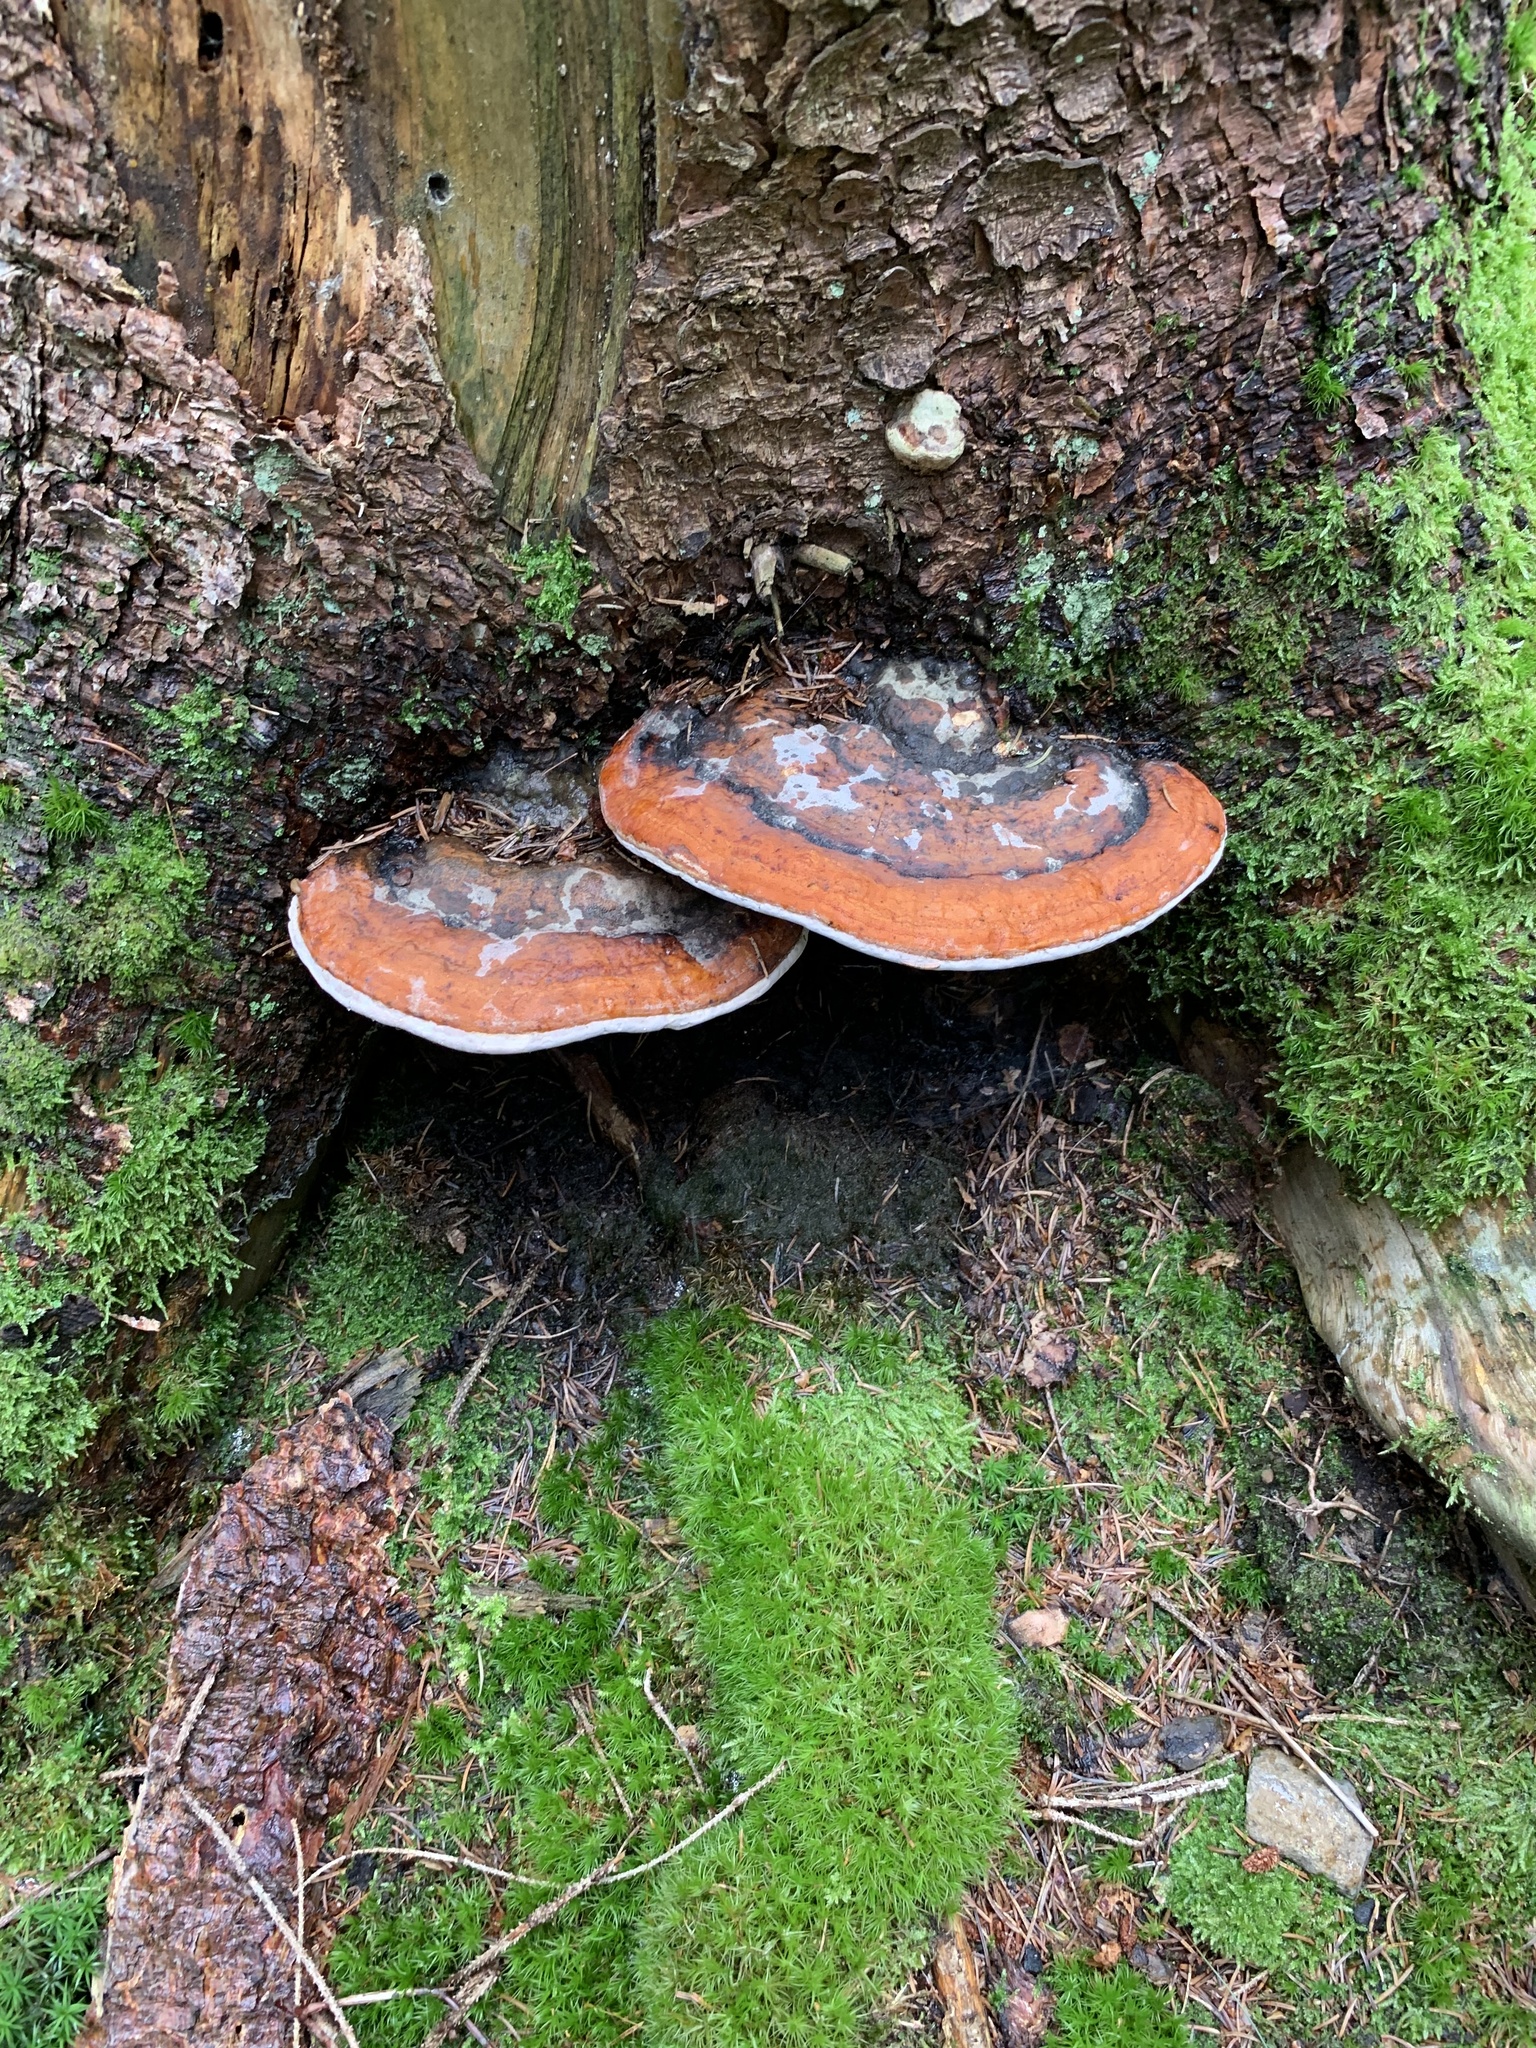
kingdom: Fungi
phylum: Basidiomycota
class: Agaricomycetes
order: Polyporales
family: Fomitopsidaceae
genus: Fomitopsis
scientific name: Fomitopsis pinicola
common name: Red-belted bracket
